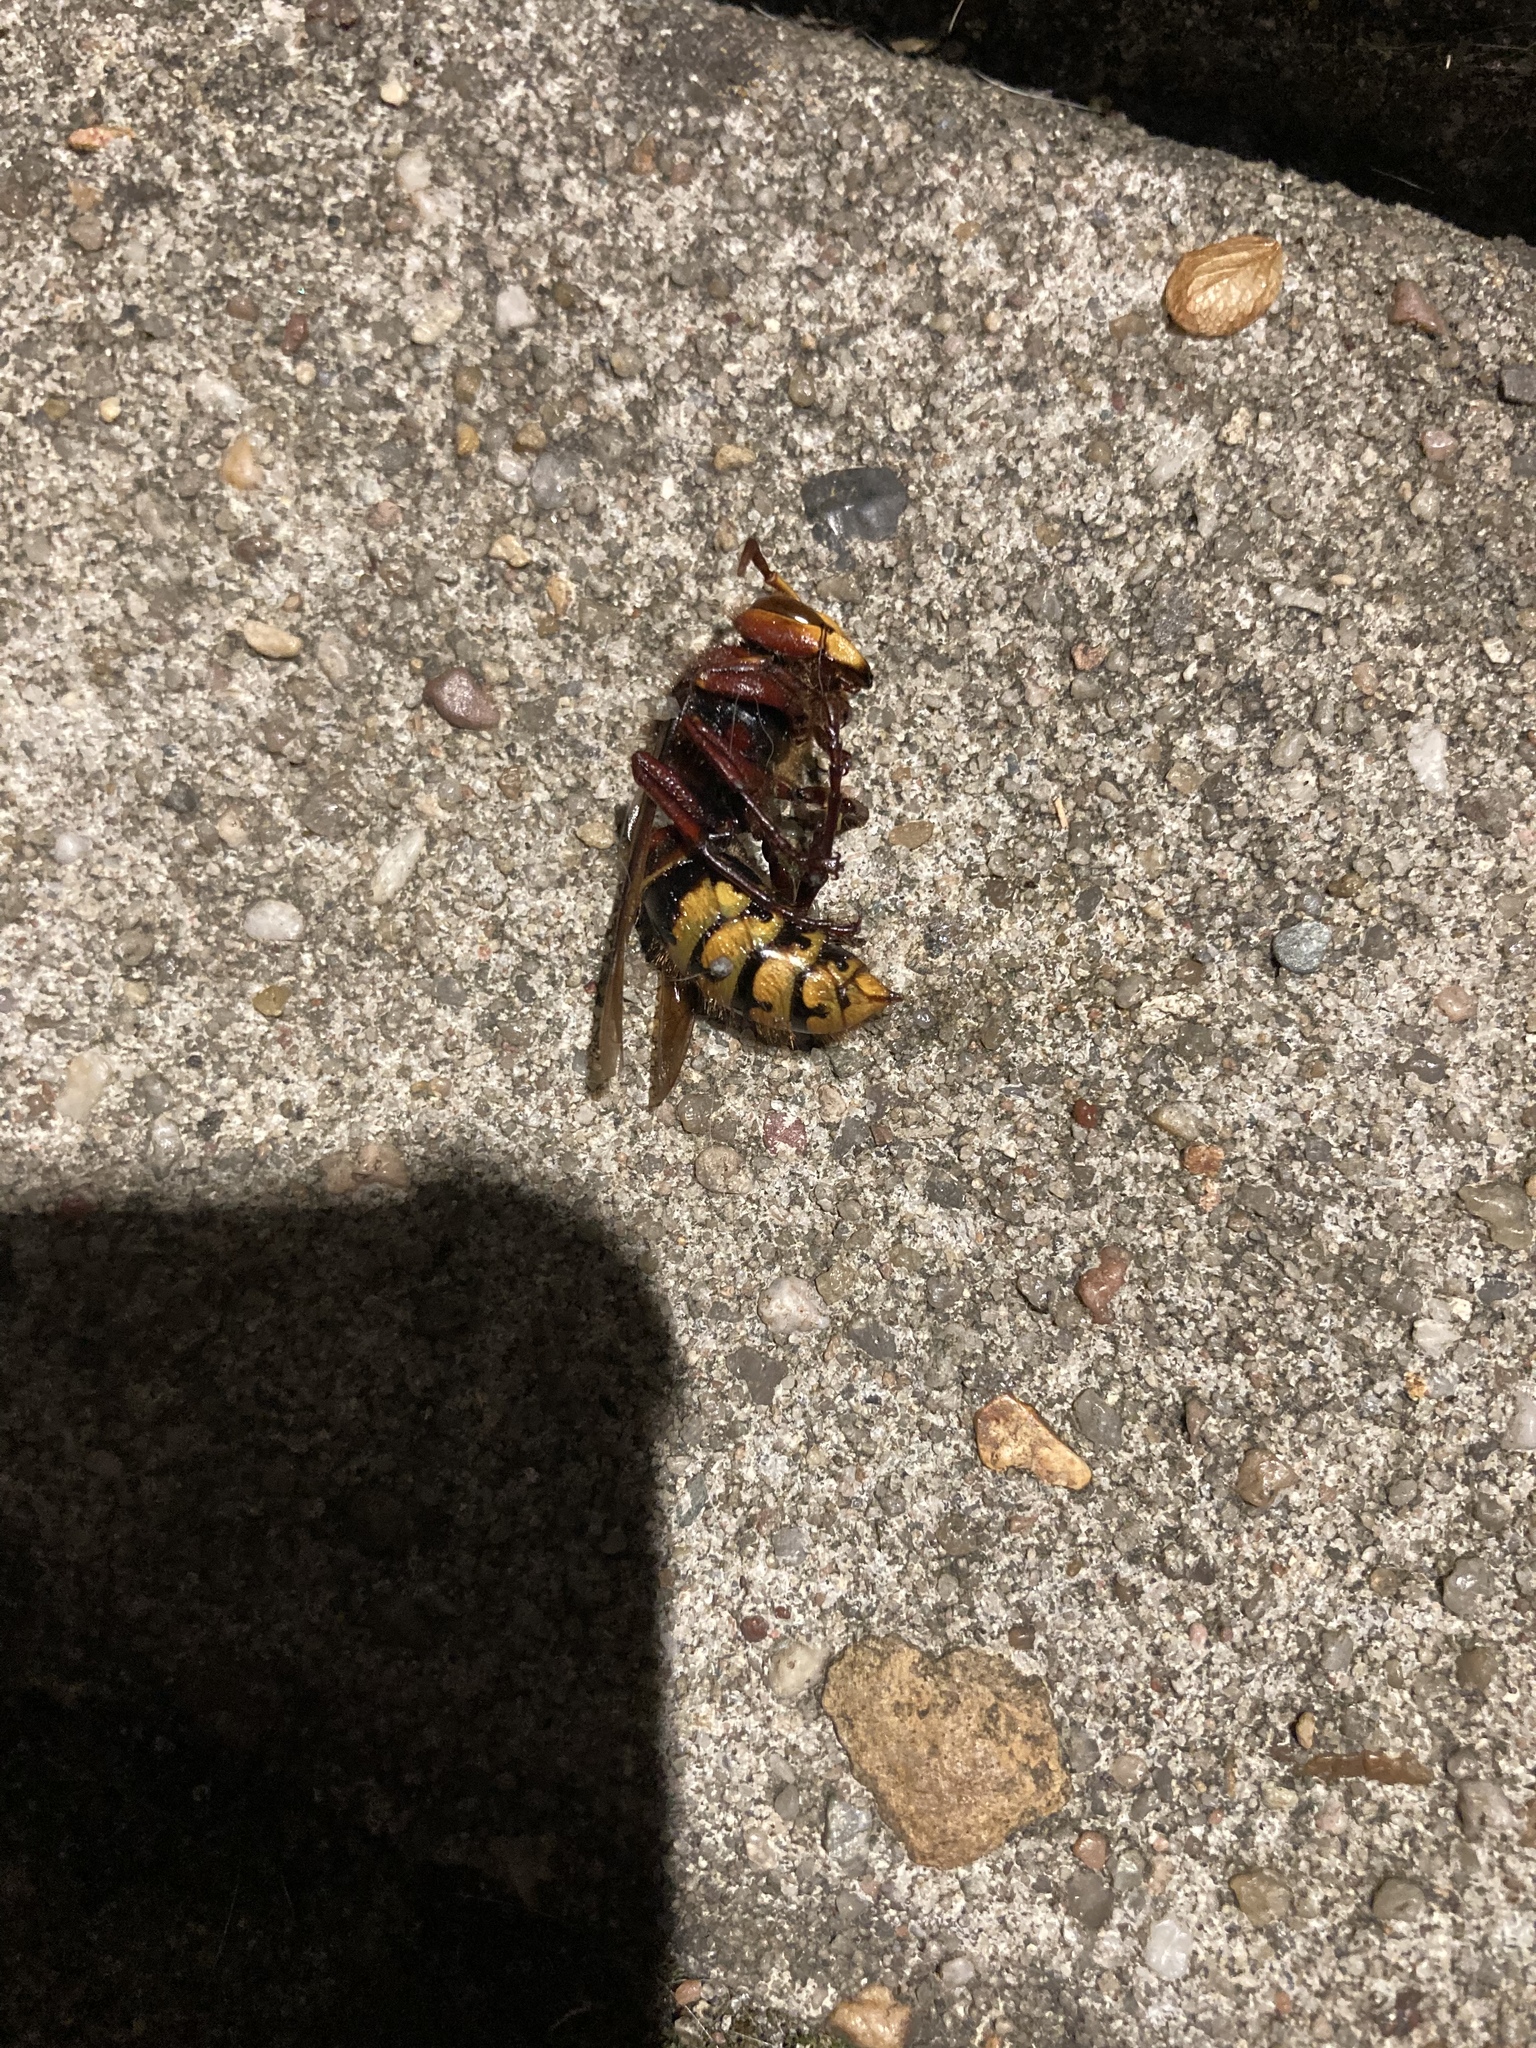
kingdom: Animalia
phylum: Arthropoda
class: Insecta
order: Hymenoptera
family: Vespidae
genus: Vespa
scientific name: Vespa crabro
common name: Hornet
